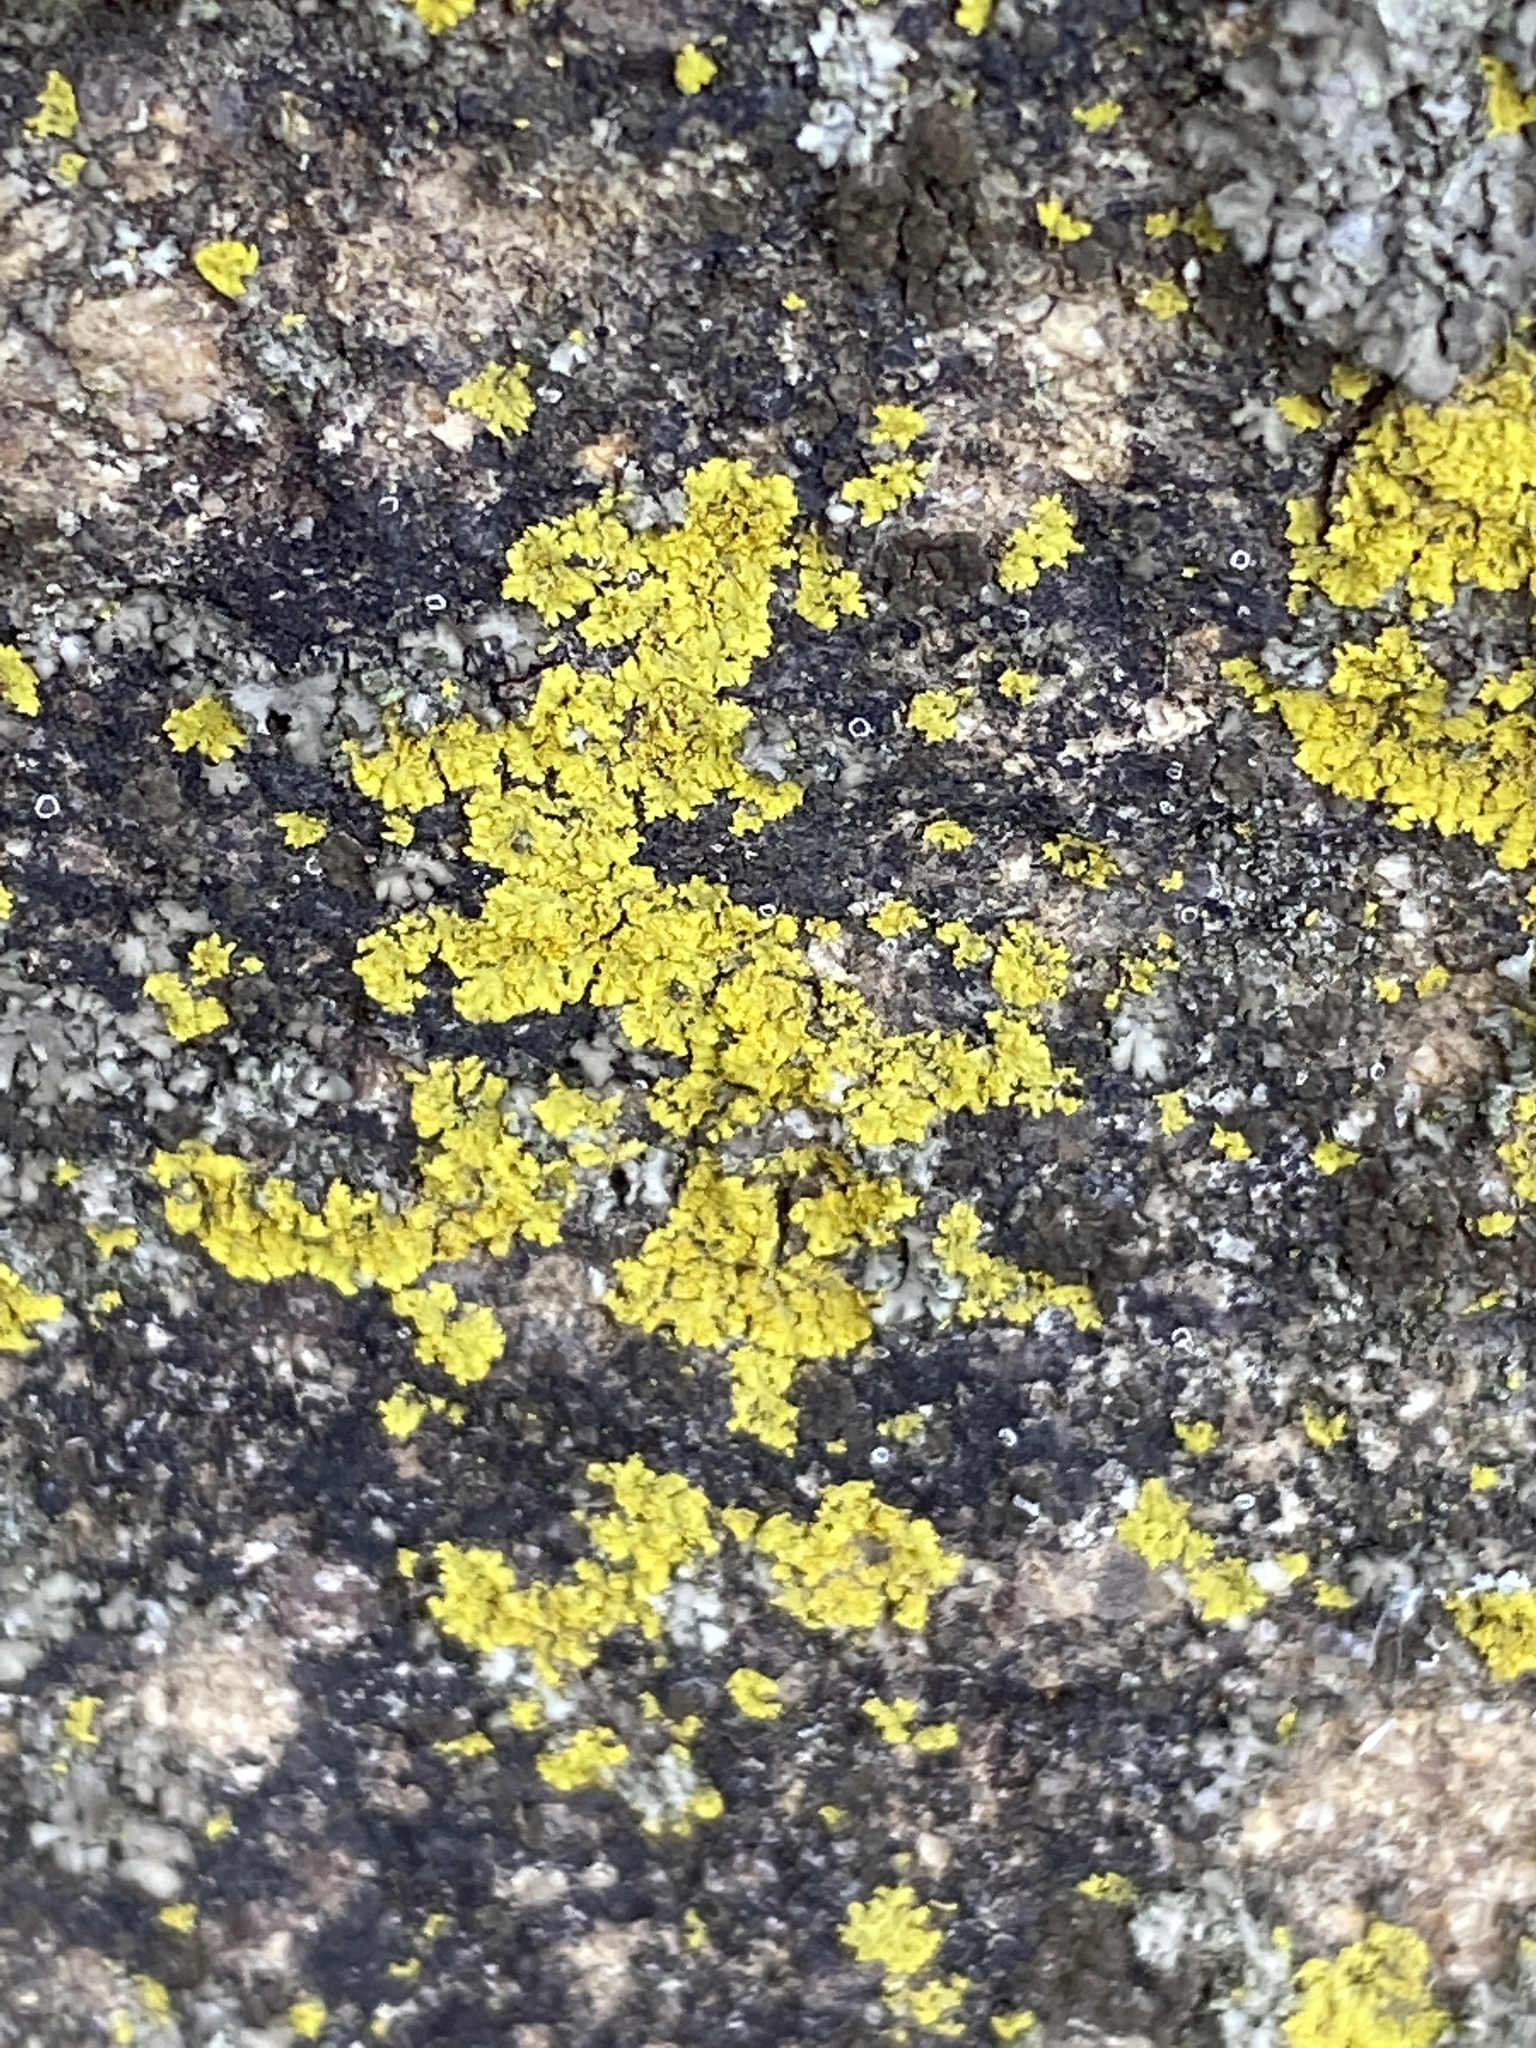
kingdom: Fungi
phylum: Ascomycota
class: Candelariomycetes
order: Candelariales
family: Candelariaceae
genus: Candelaria
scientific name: Candelaria concolor
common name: Candleflame lichen
